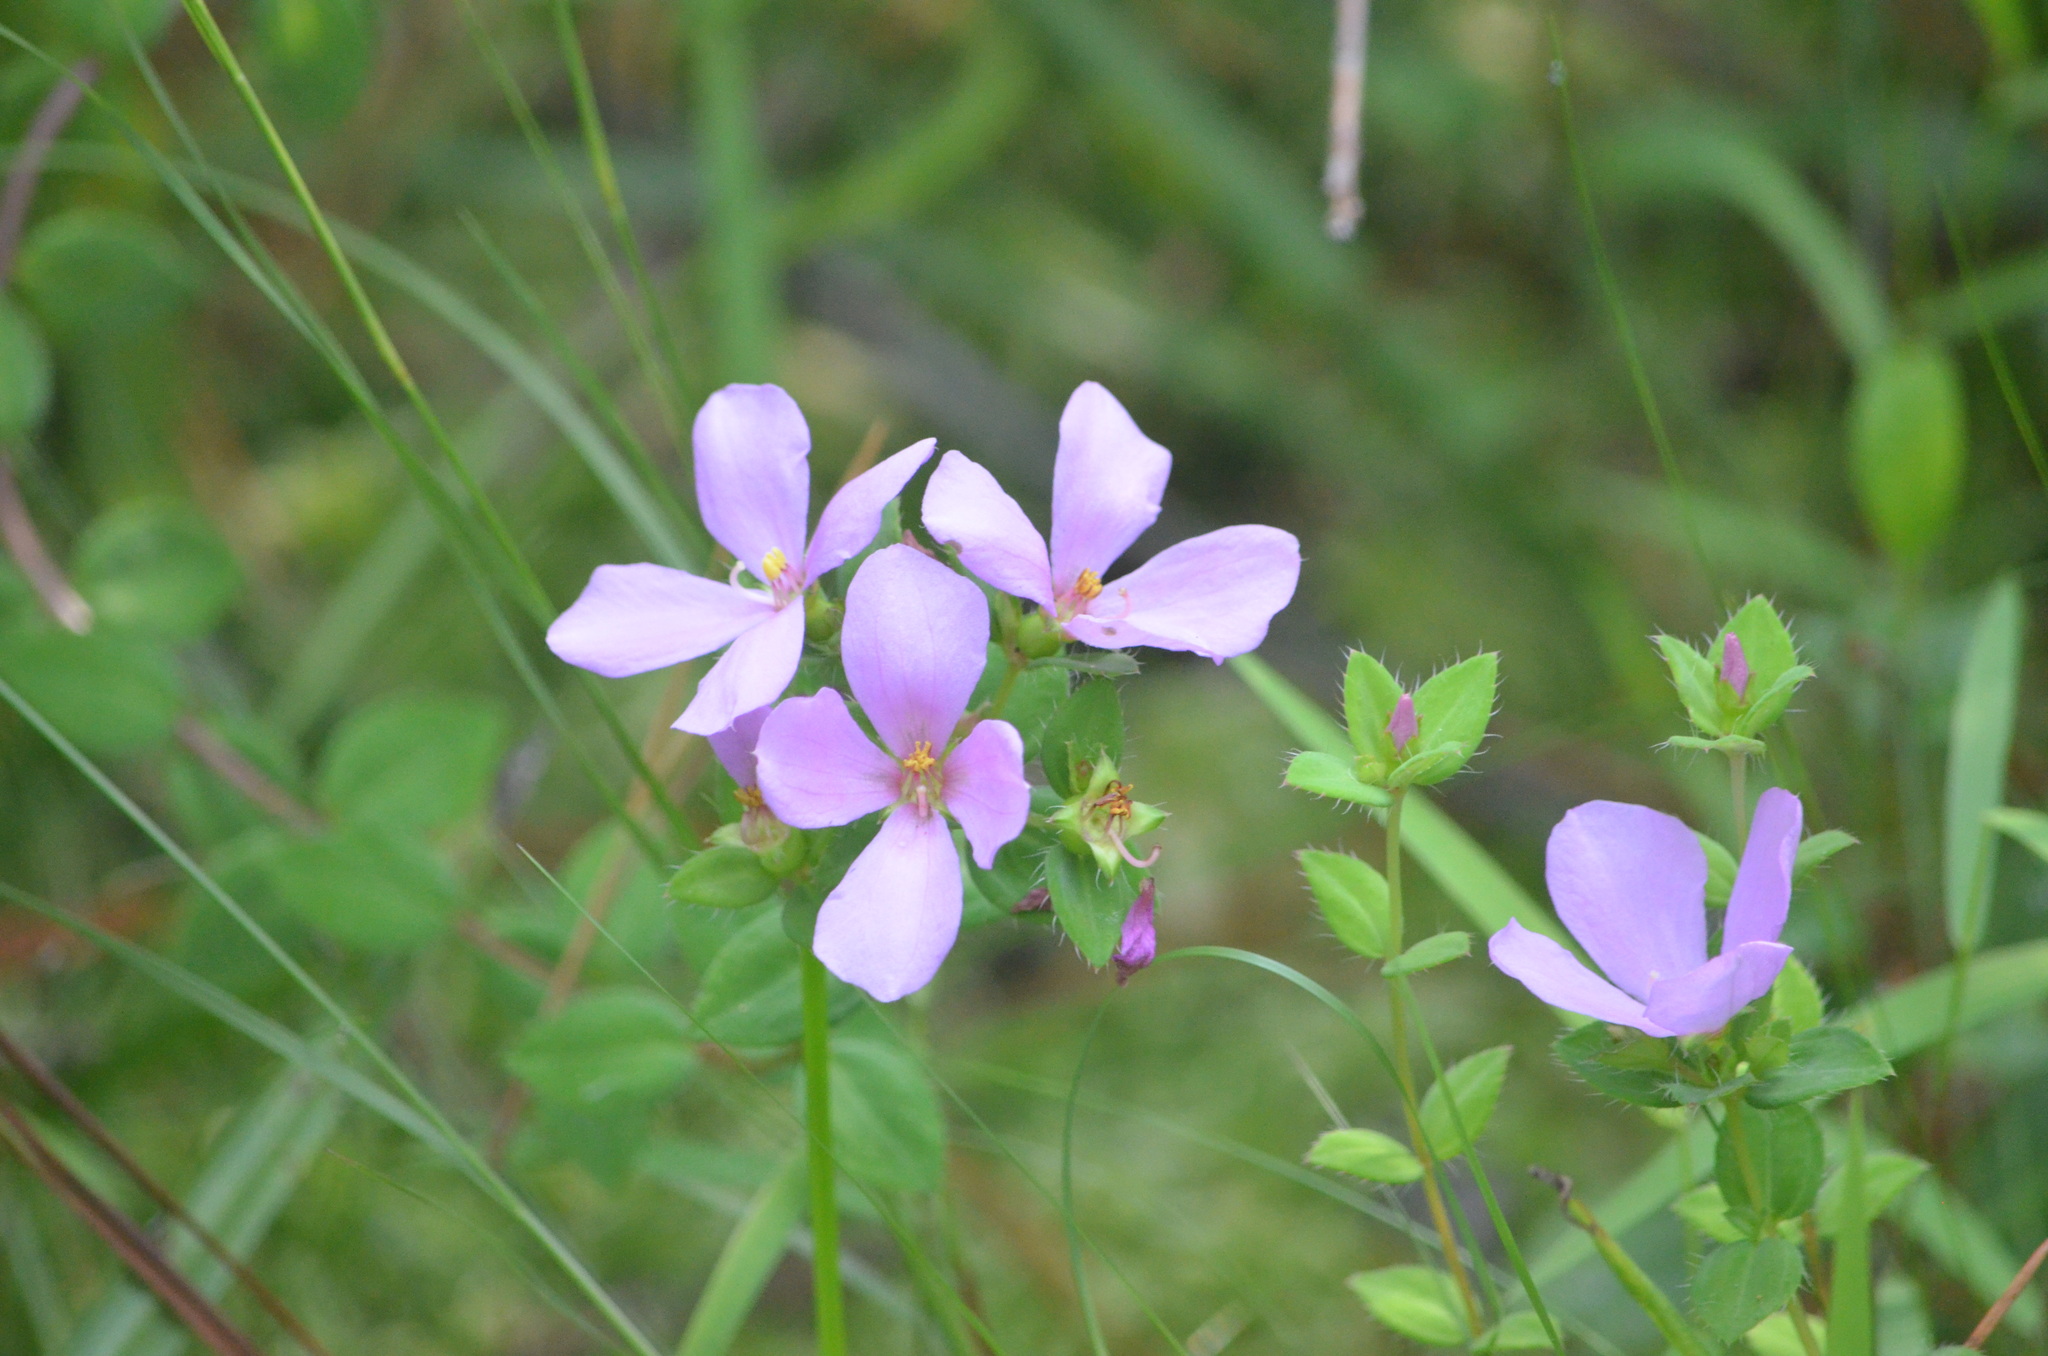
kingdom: Plantae
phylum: Tracheophyta
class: Magnoliopsida
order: Myrtales
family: Melastomataceae
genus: Rhexia
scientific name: Rhexia petiolata
